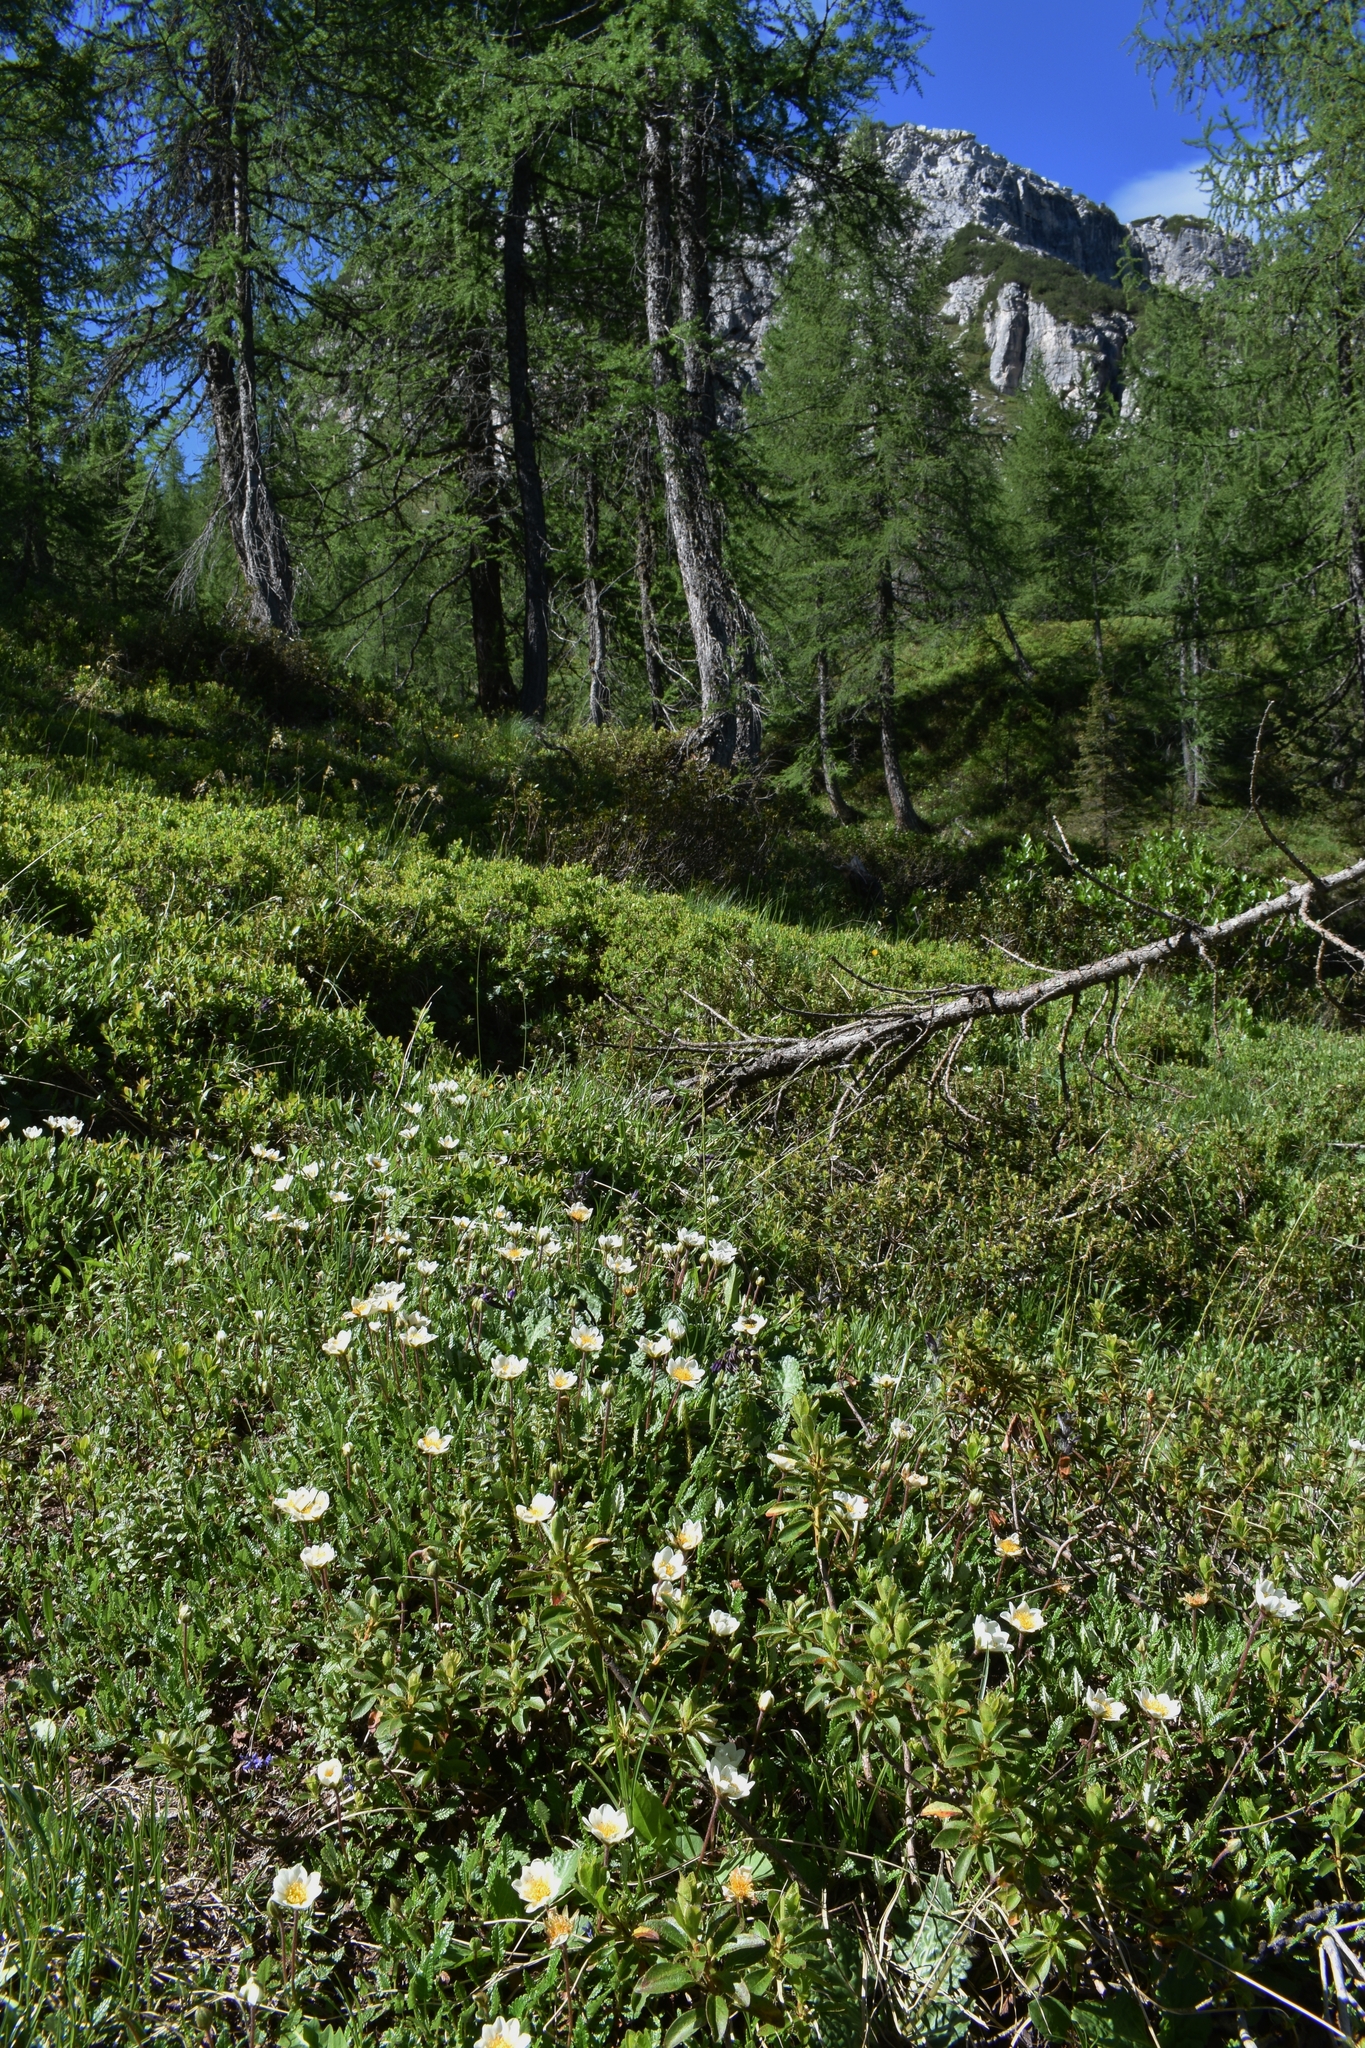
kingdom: Plantae
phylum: Tracheophyta
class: Magnoliopsida
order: Rosales
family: Rosaceae
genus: Dryas
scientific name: Dryas octopetala
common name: Eight-petal mountain-avens
